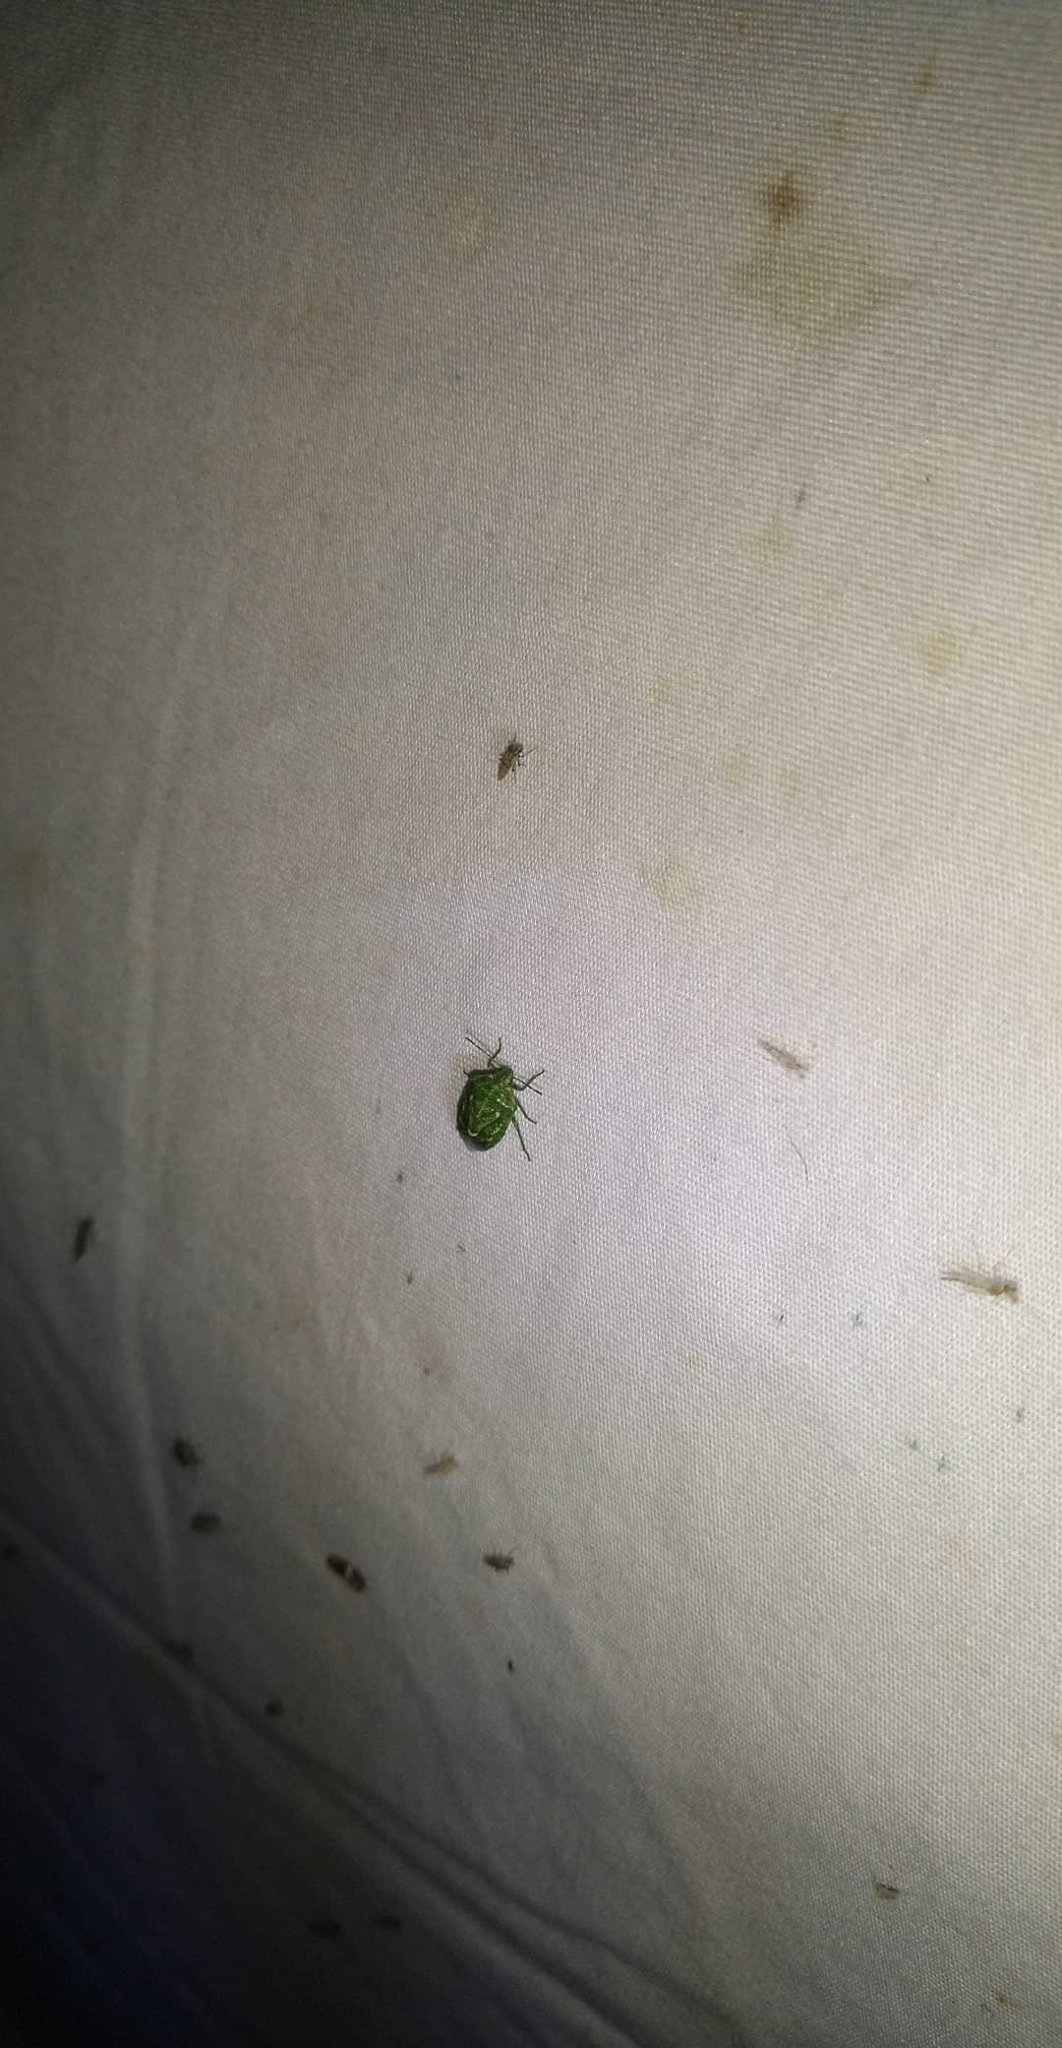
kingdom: Animalia
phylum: Arthropoda
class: Insecta
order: Hemiptera
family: Pentatomidae
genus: Banasa
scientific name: Banasa euchlora
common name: Cedar berry bug
